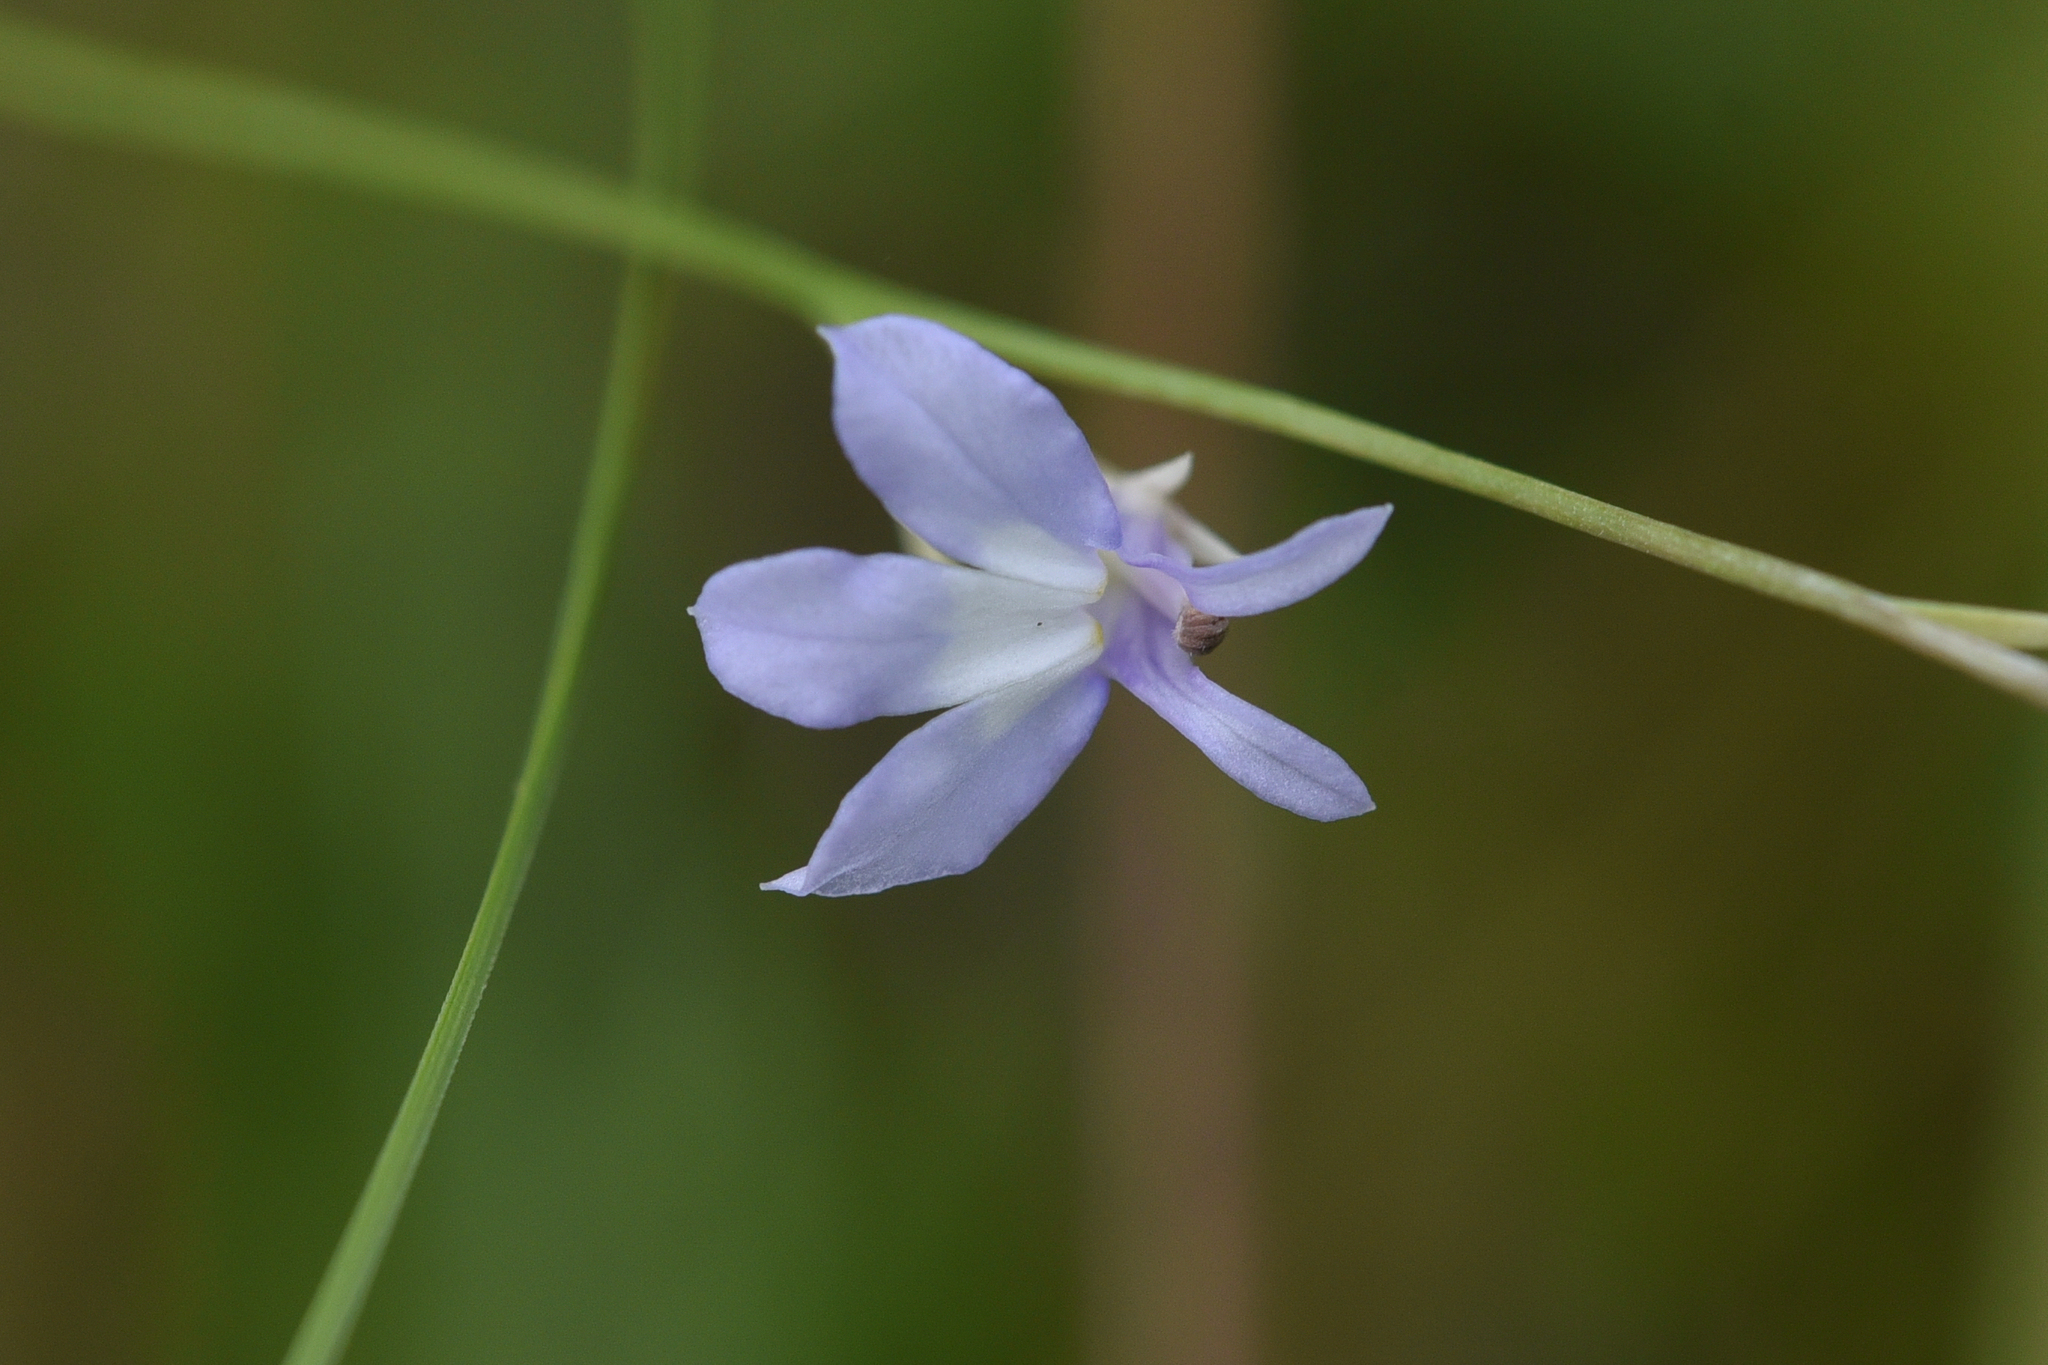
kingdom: Plantae
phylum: Tracheophyta
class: Magnoliopsida
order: Asterales
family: Campanulaceae
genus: Lobelia
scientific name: Lobelia kalmii
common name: Kalm's lobelia
